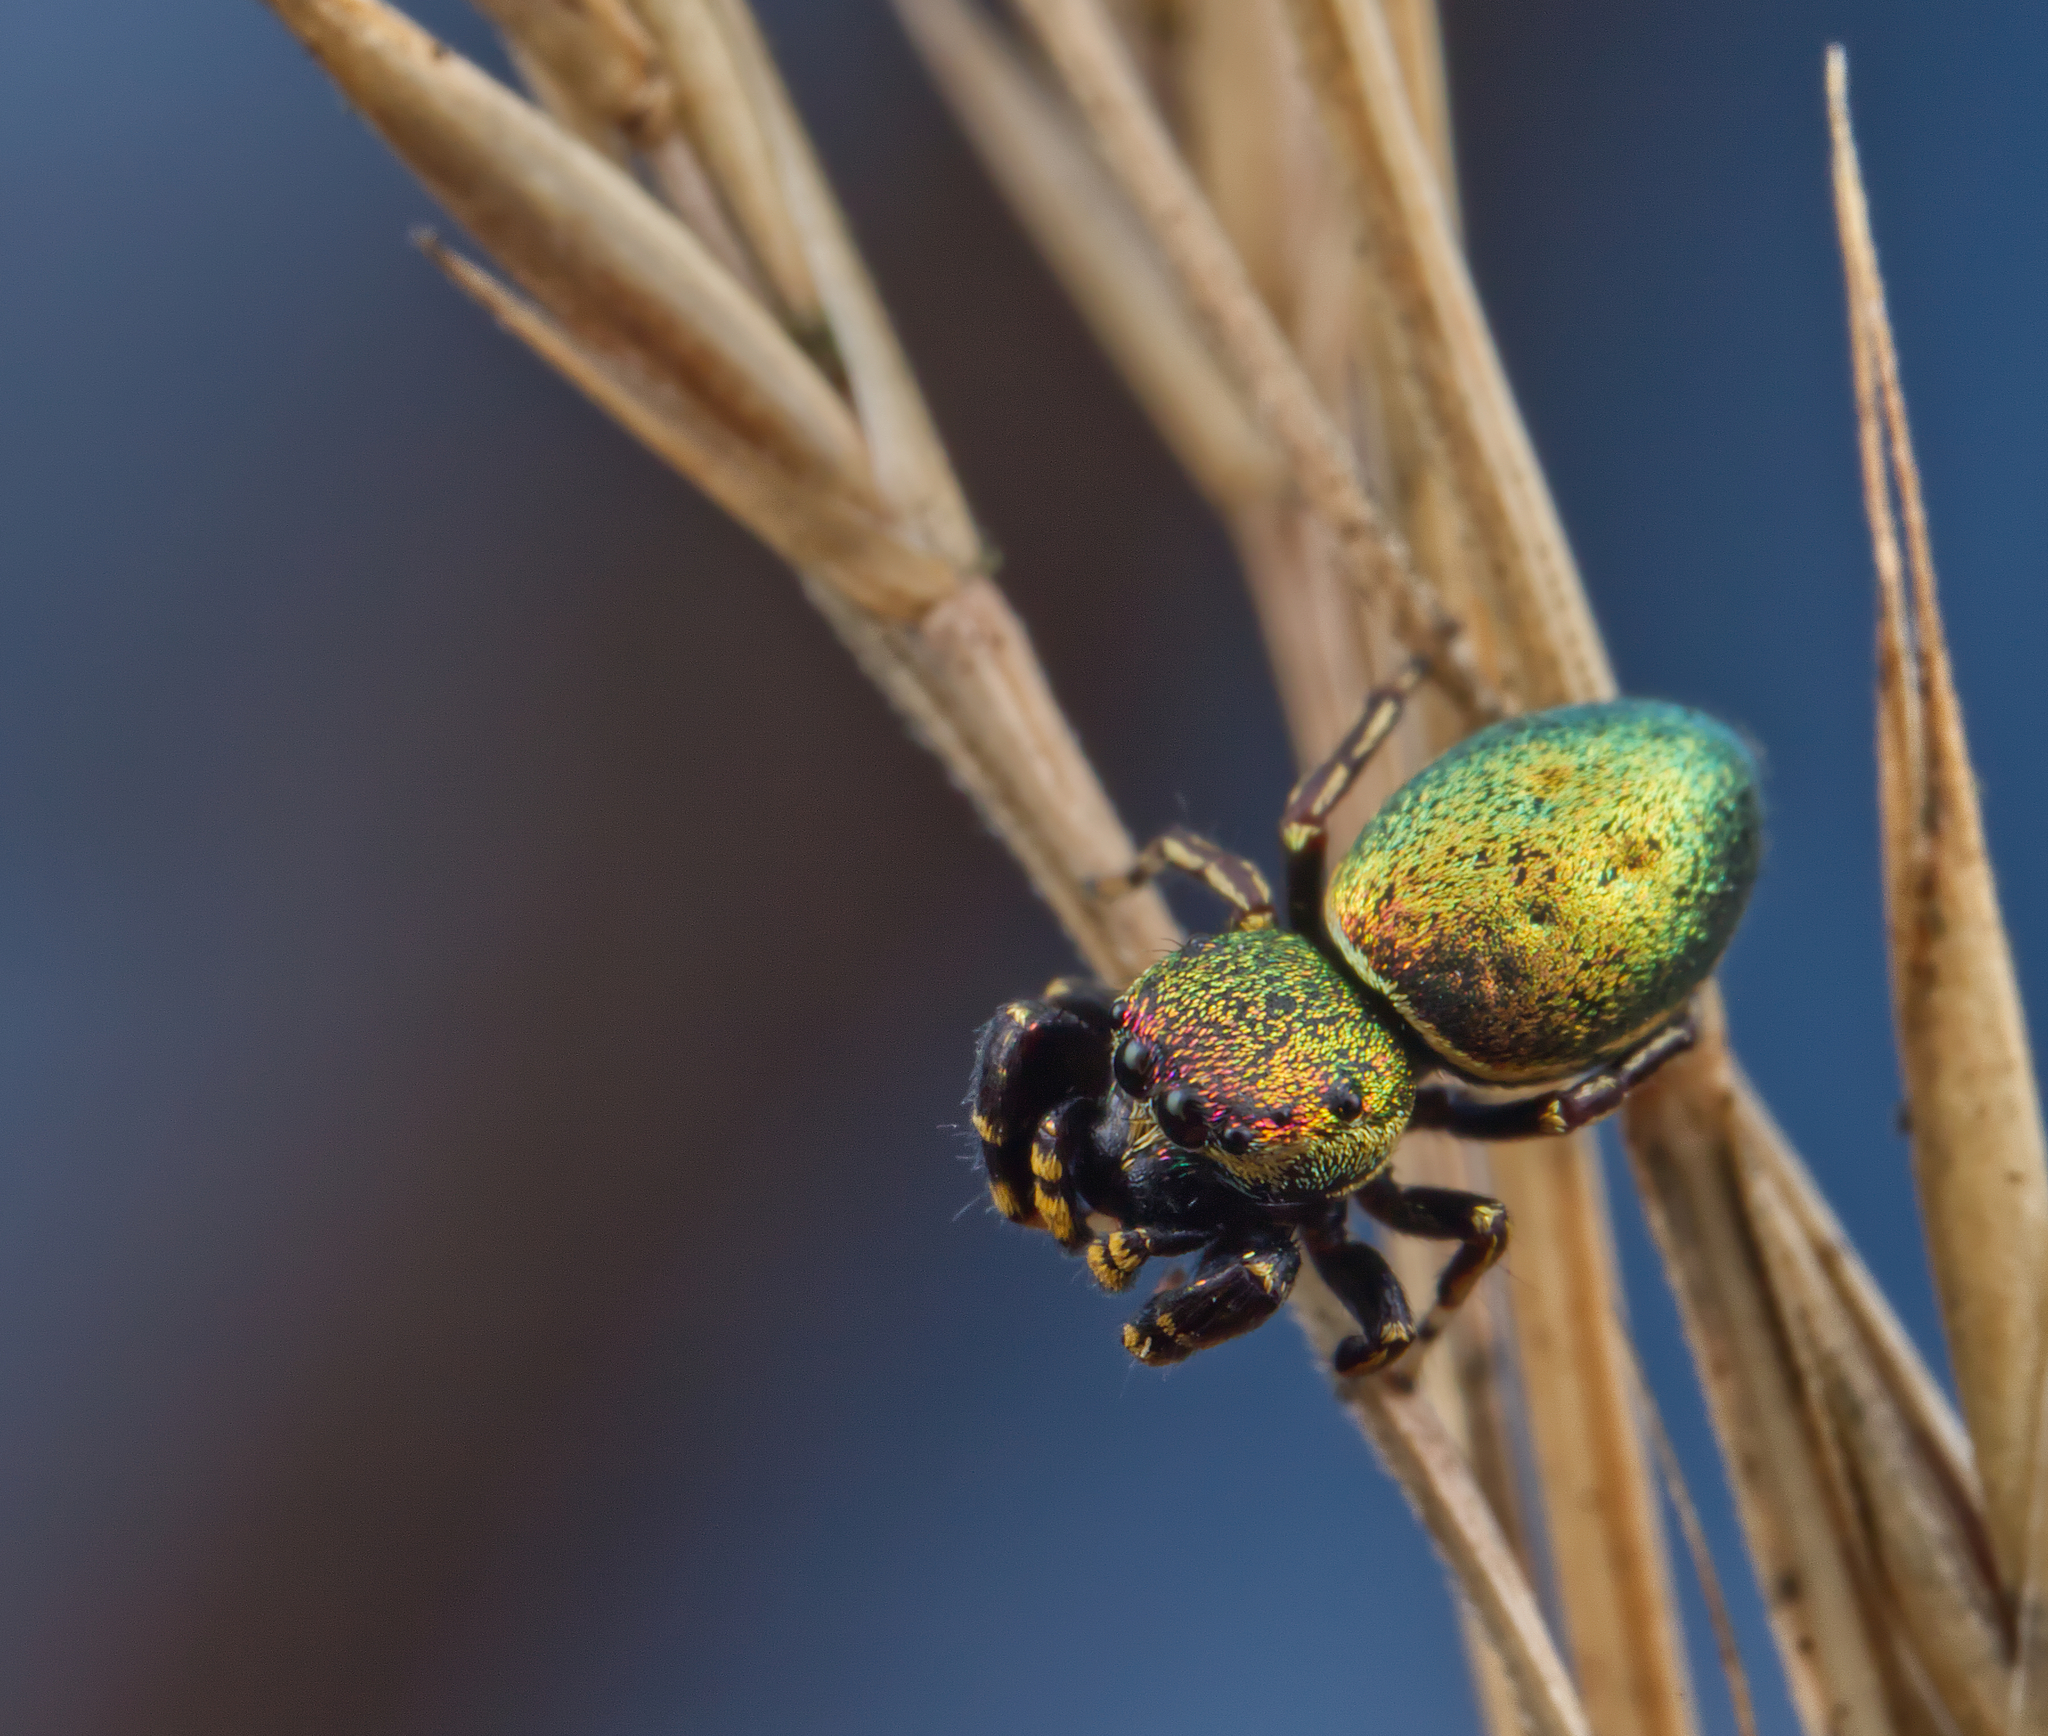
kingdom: Animalia
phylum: Arthropoda
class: Arachnida
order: Araneae
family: Salticidae
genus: Sassacus
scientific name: Sassacus papenhoei
